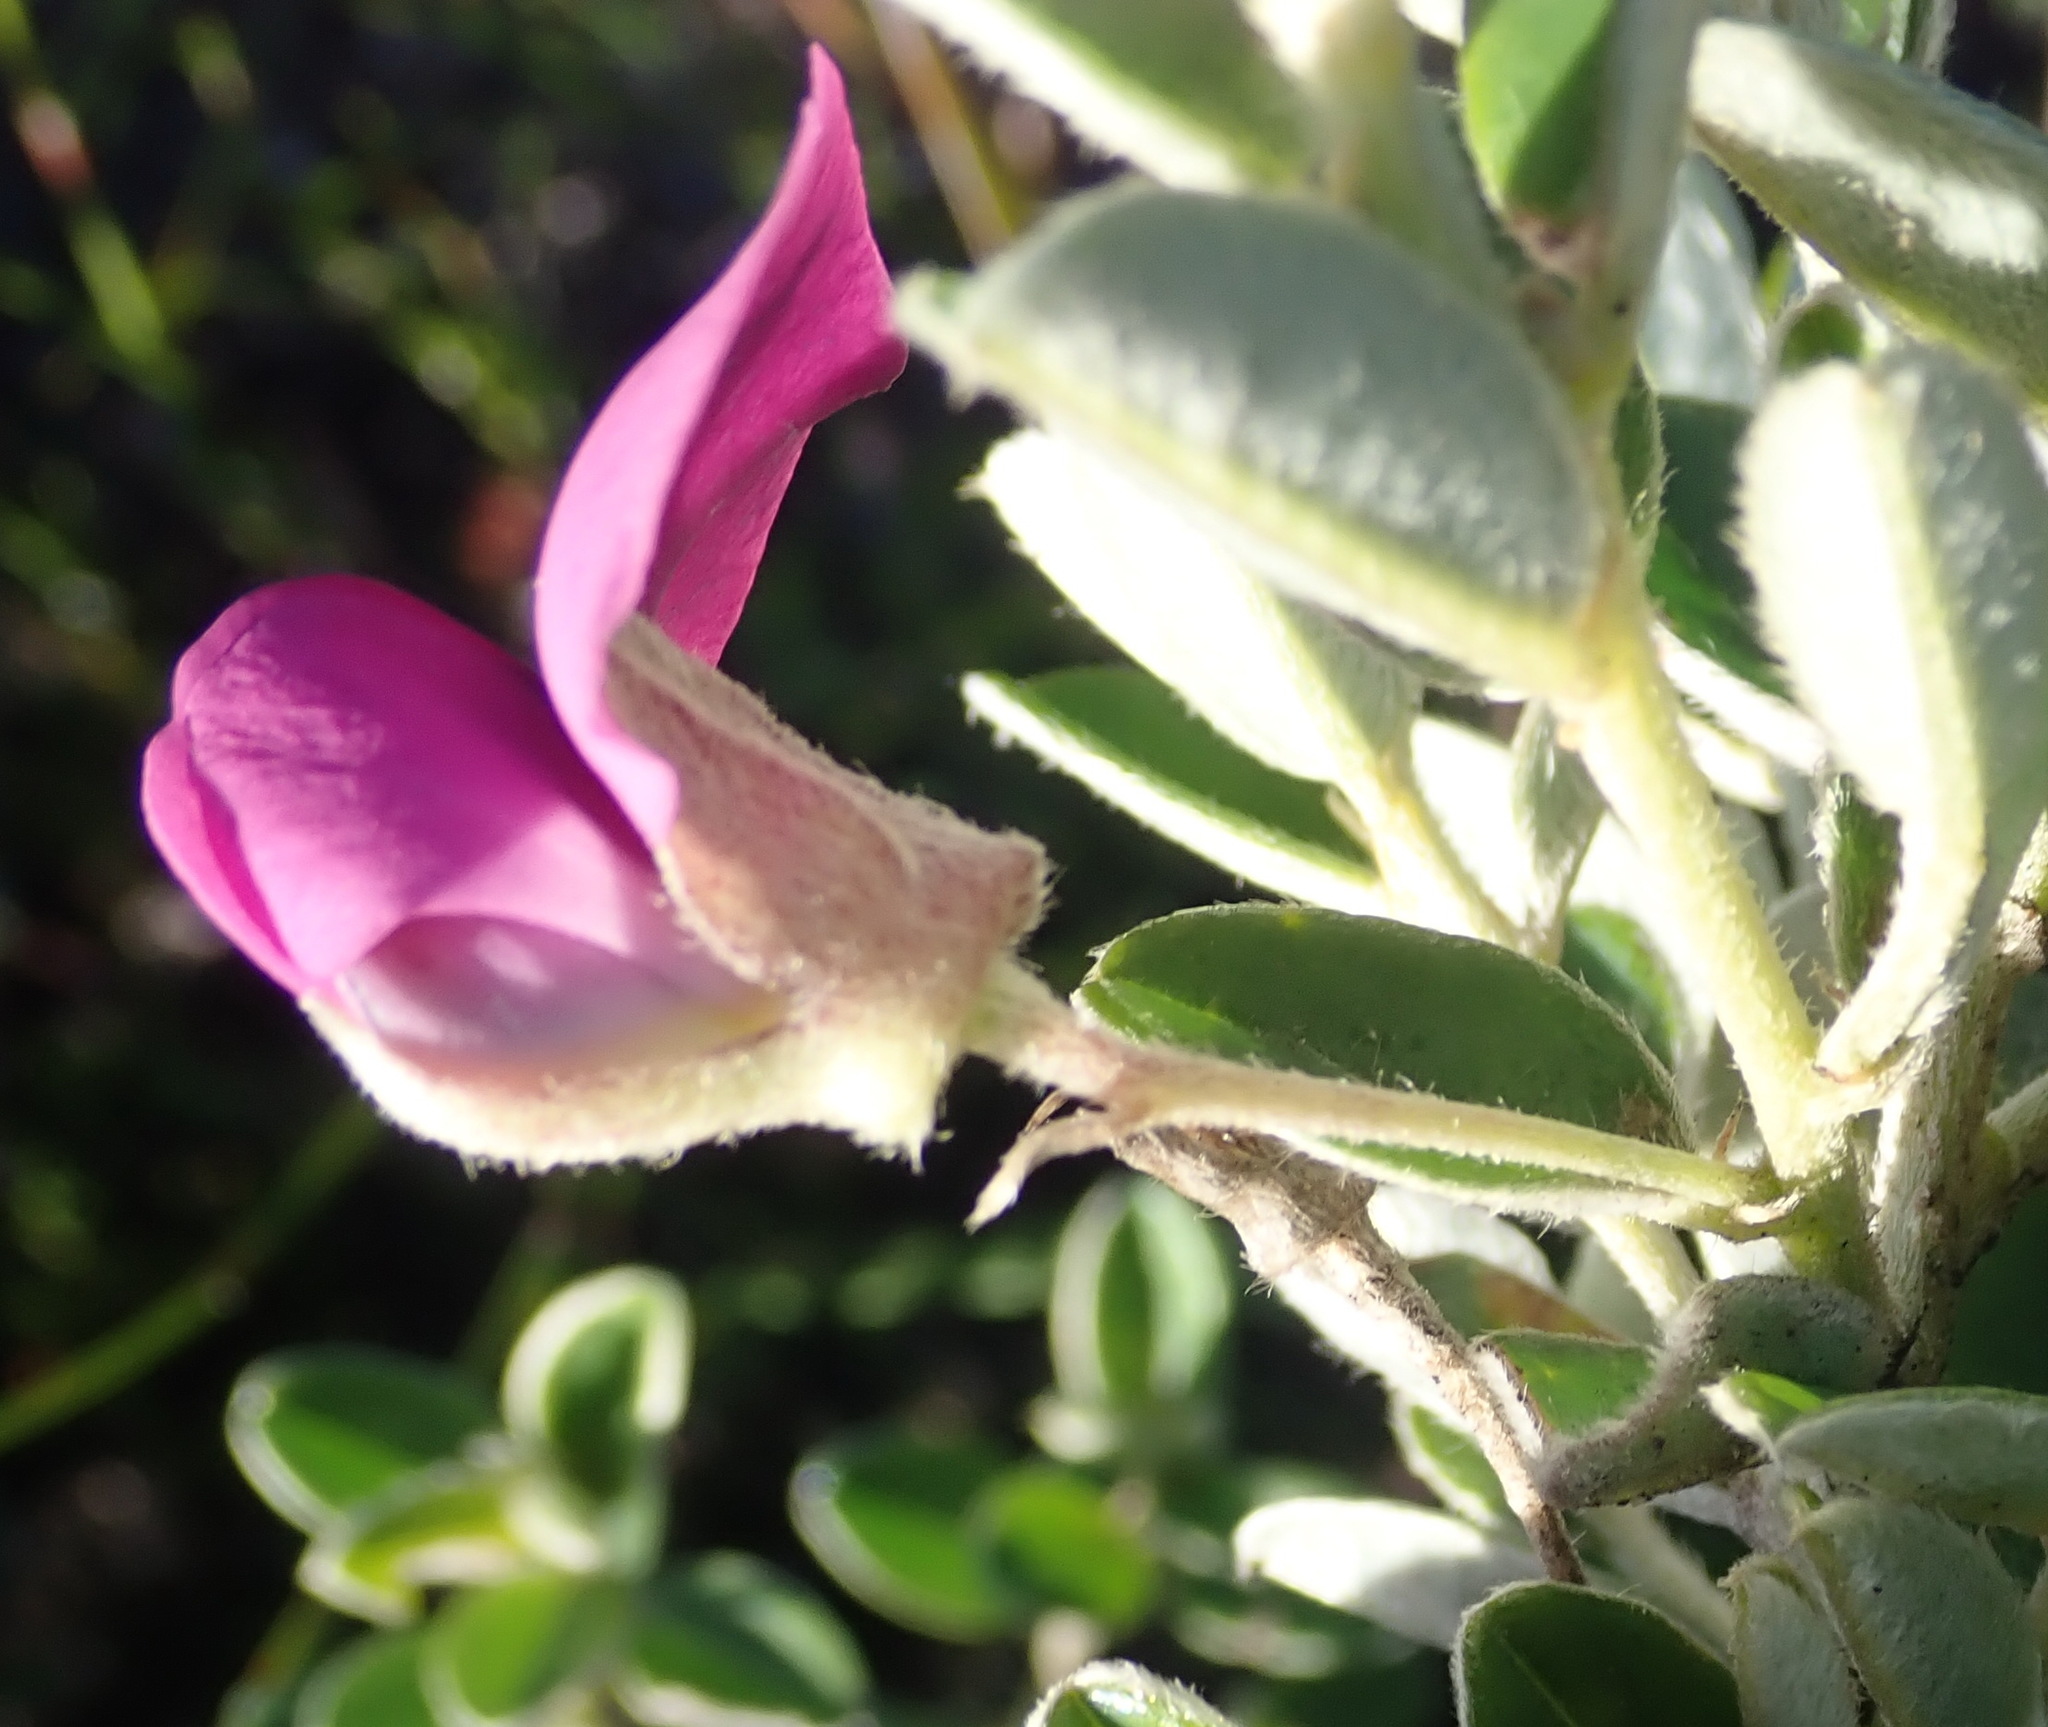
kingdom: Plantae
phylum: Tracheophyta
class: Magnoliopsida
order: Fabales
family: Fabaceae
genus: Podalyria
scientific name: Podalyria buxifolia
